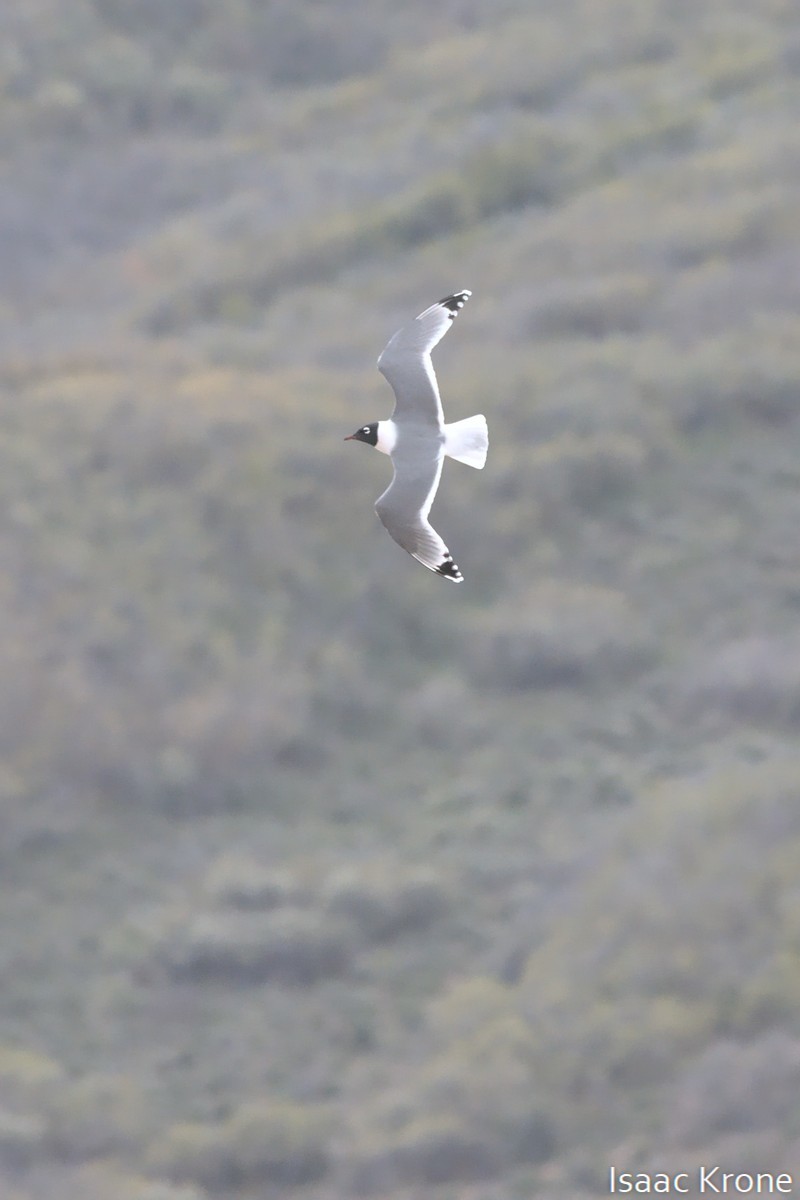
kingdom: Animalia
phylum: Chordata
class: Aves
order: Charadriiformes
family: Laridae
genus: Leucophaeus
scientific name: Leucophaeus pipixcan
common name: Franklin's gull
